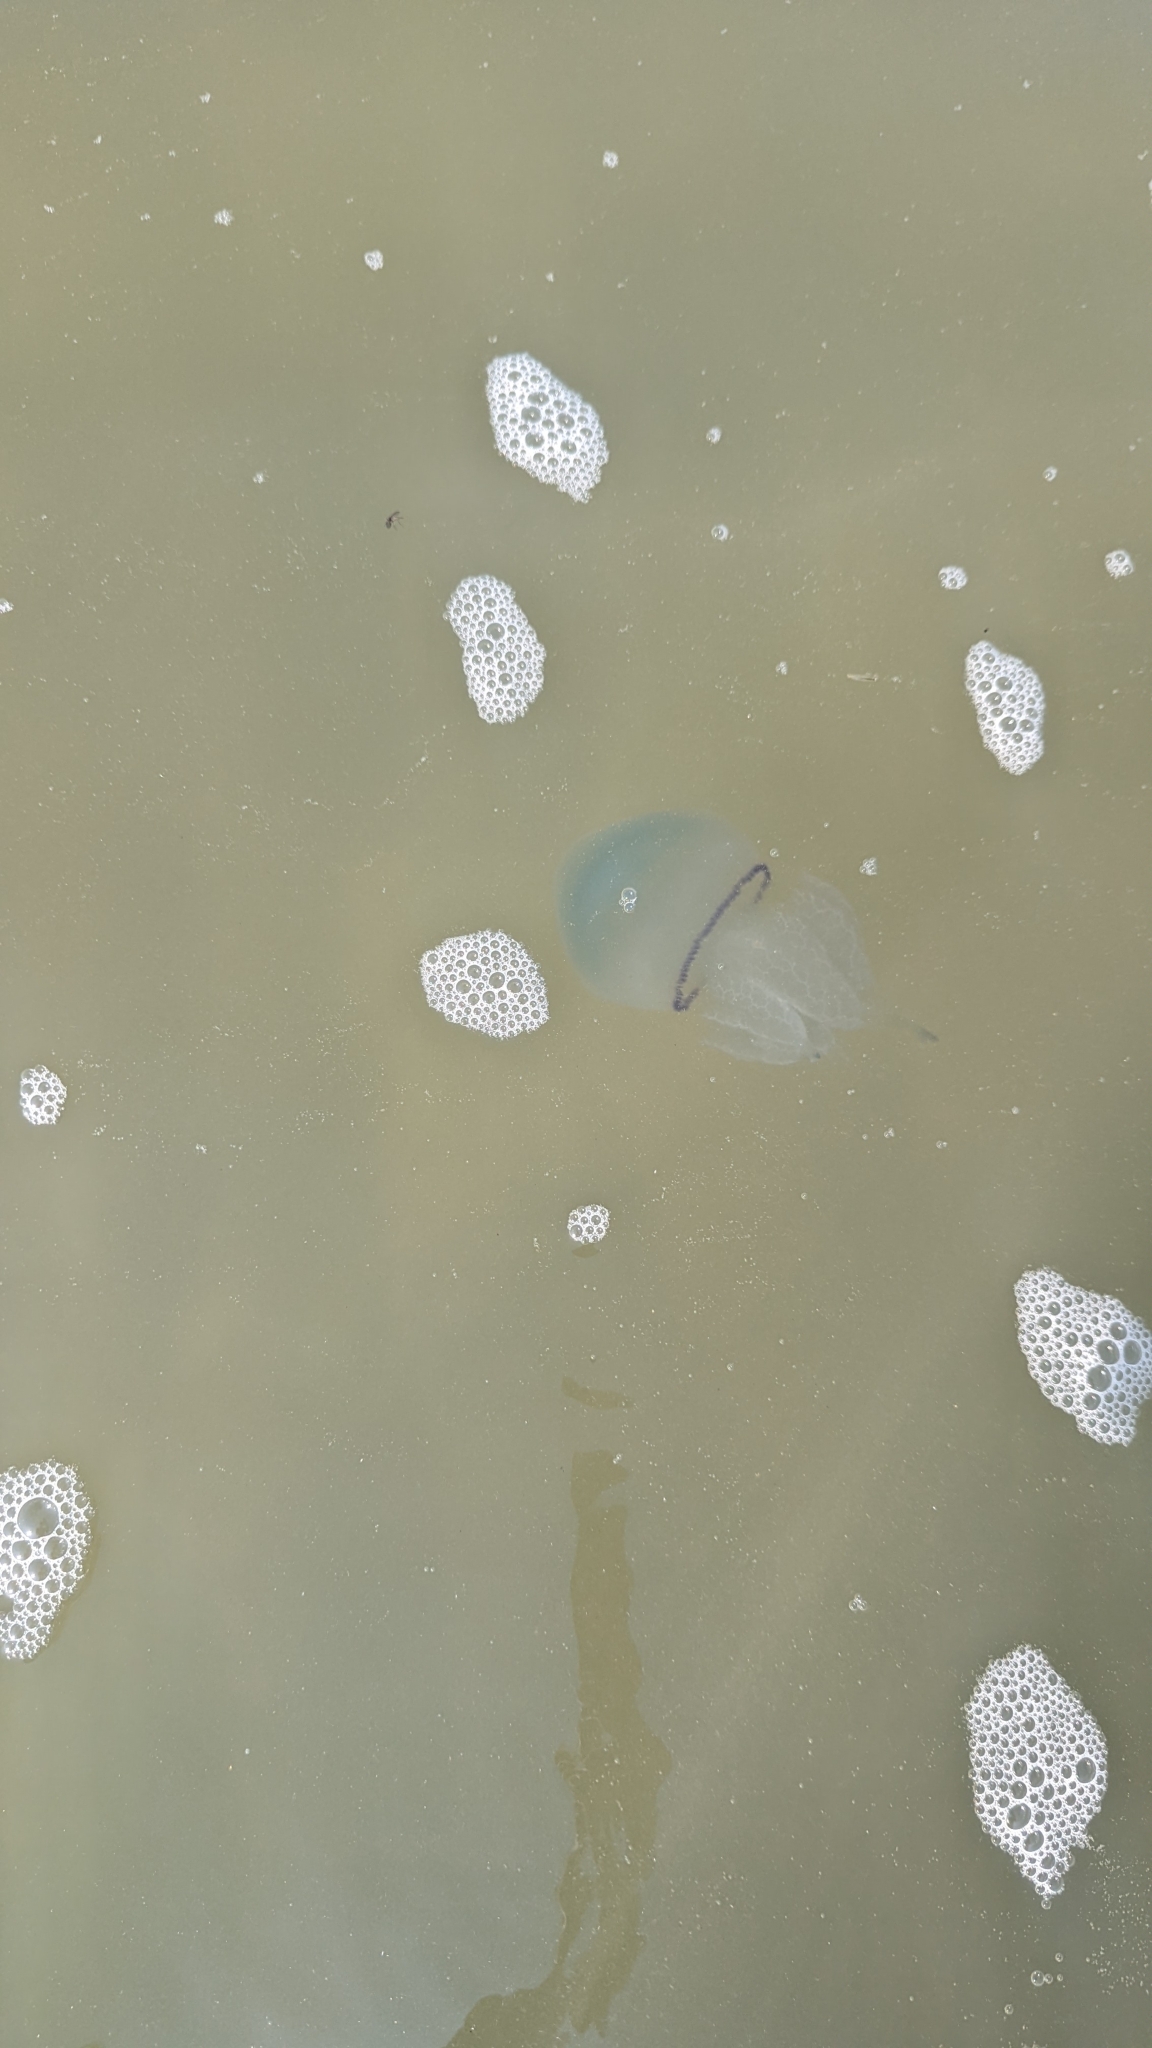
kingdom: Animalia
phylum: Cnidaria
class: Scyphozoa
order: Rhizostomeae
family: Rhizostomatidae
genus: Rhizostoma
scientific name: Rhizostoma octopus
